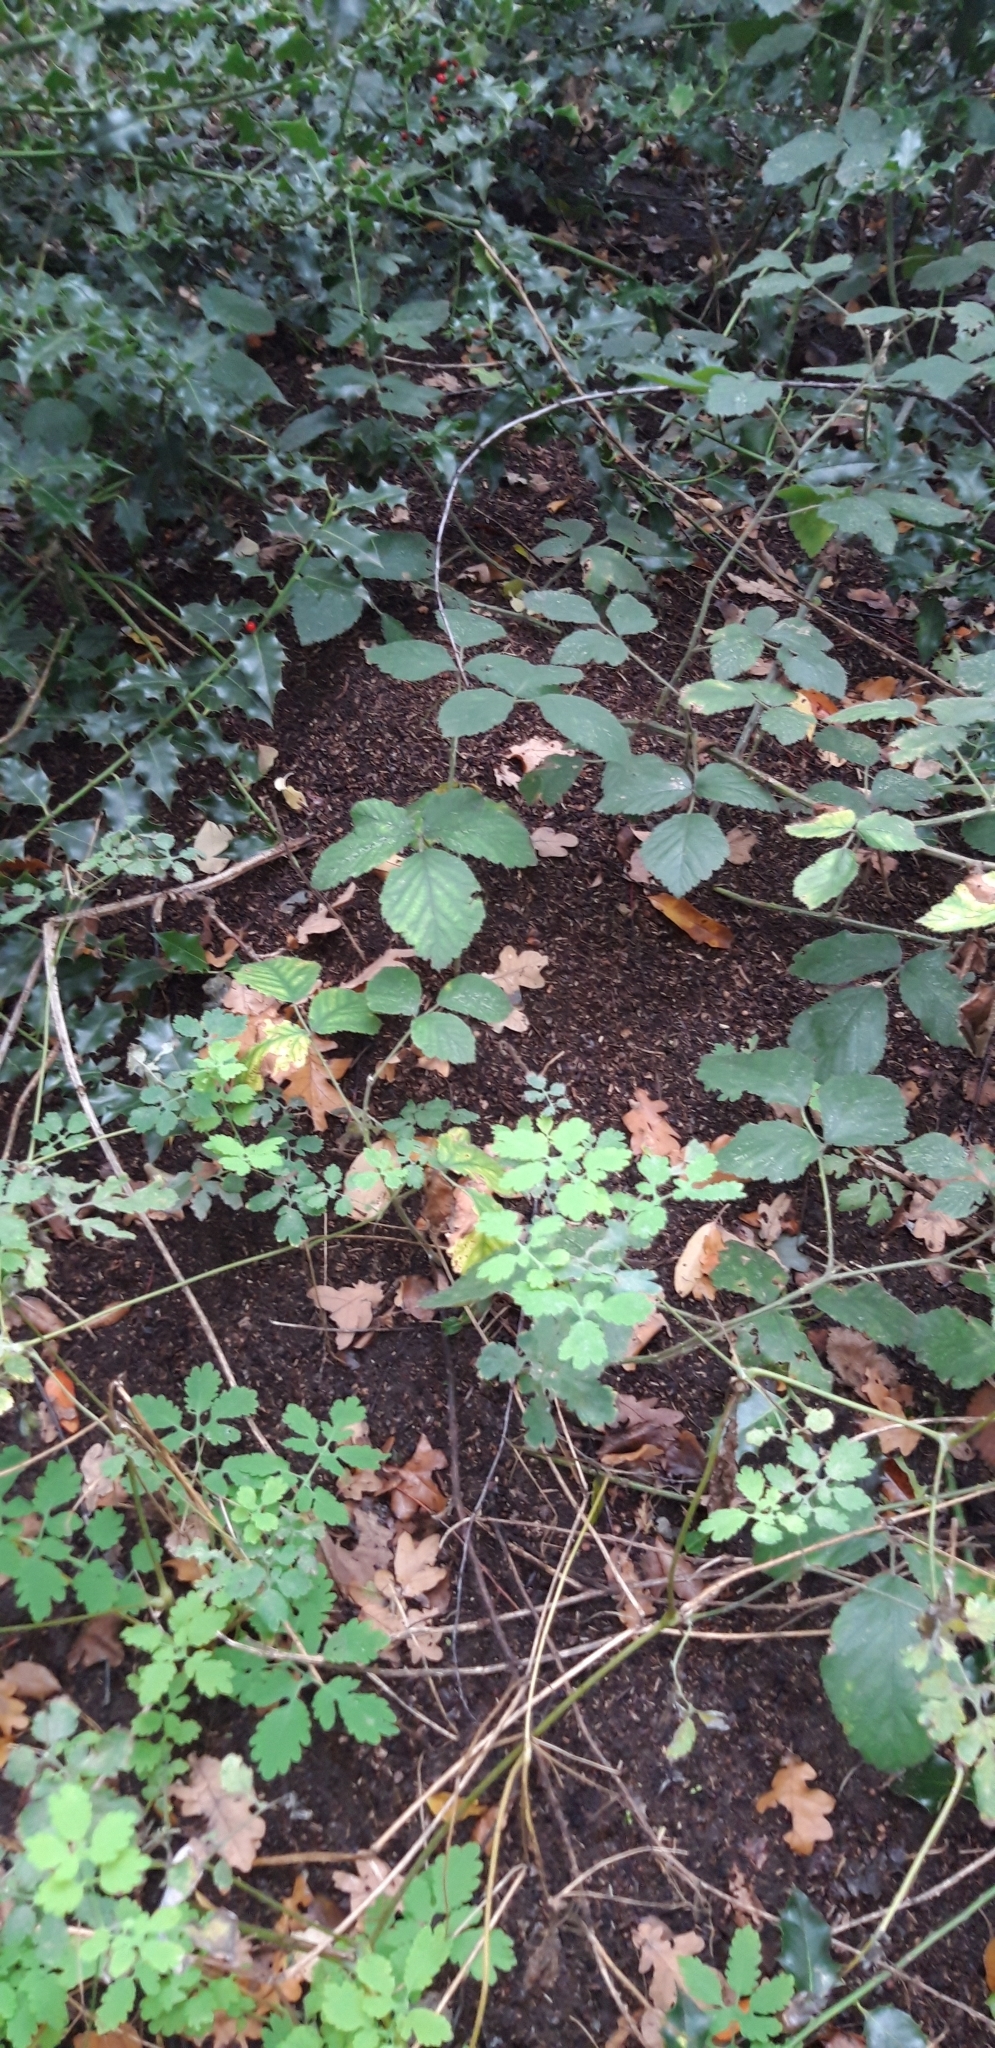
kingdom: Plantae
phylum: Tracheophyta
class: Magnoliopsida
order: Ranunculales
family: Papaveraceae
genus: Chelidonium
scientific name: Chelidonium majus
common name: Greater celandine
